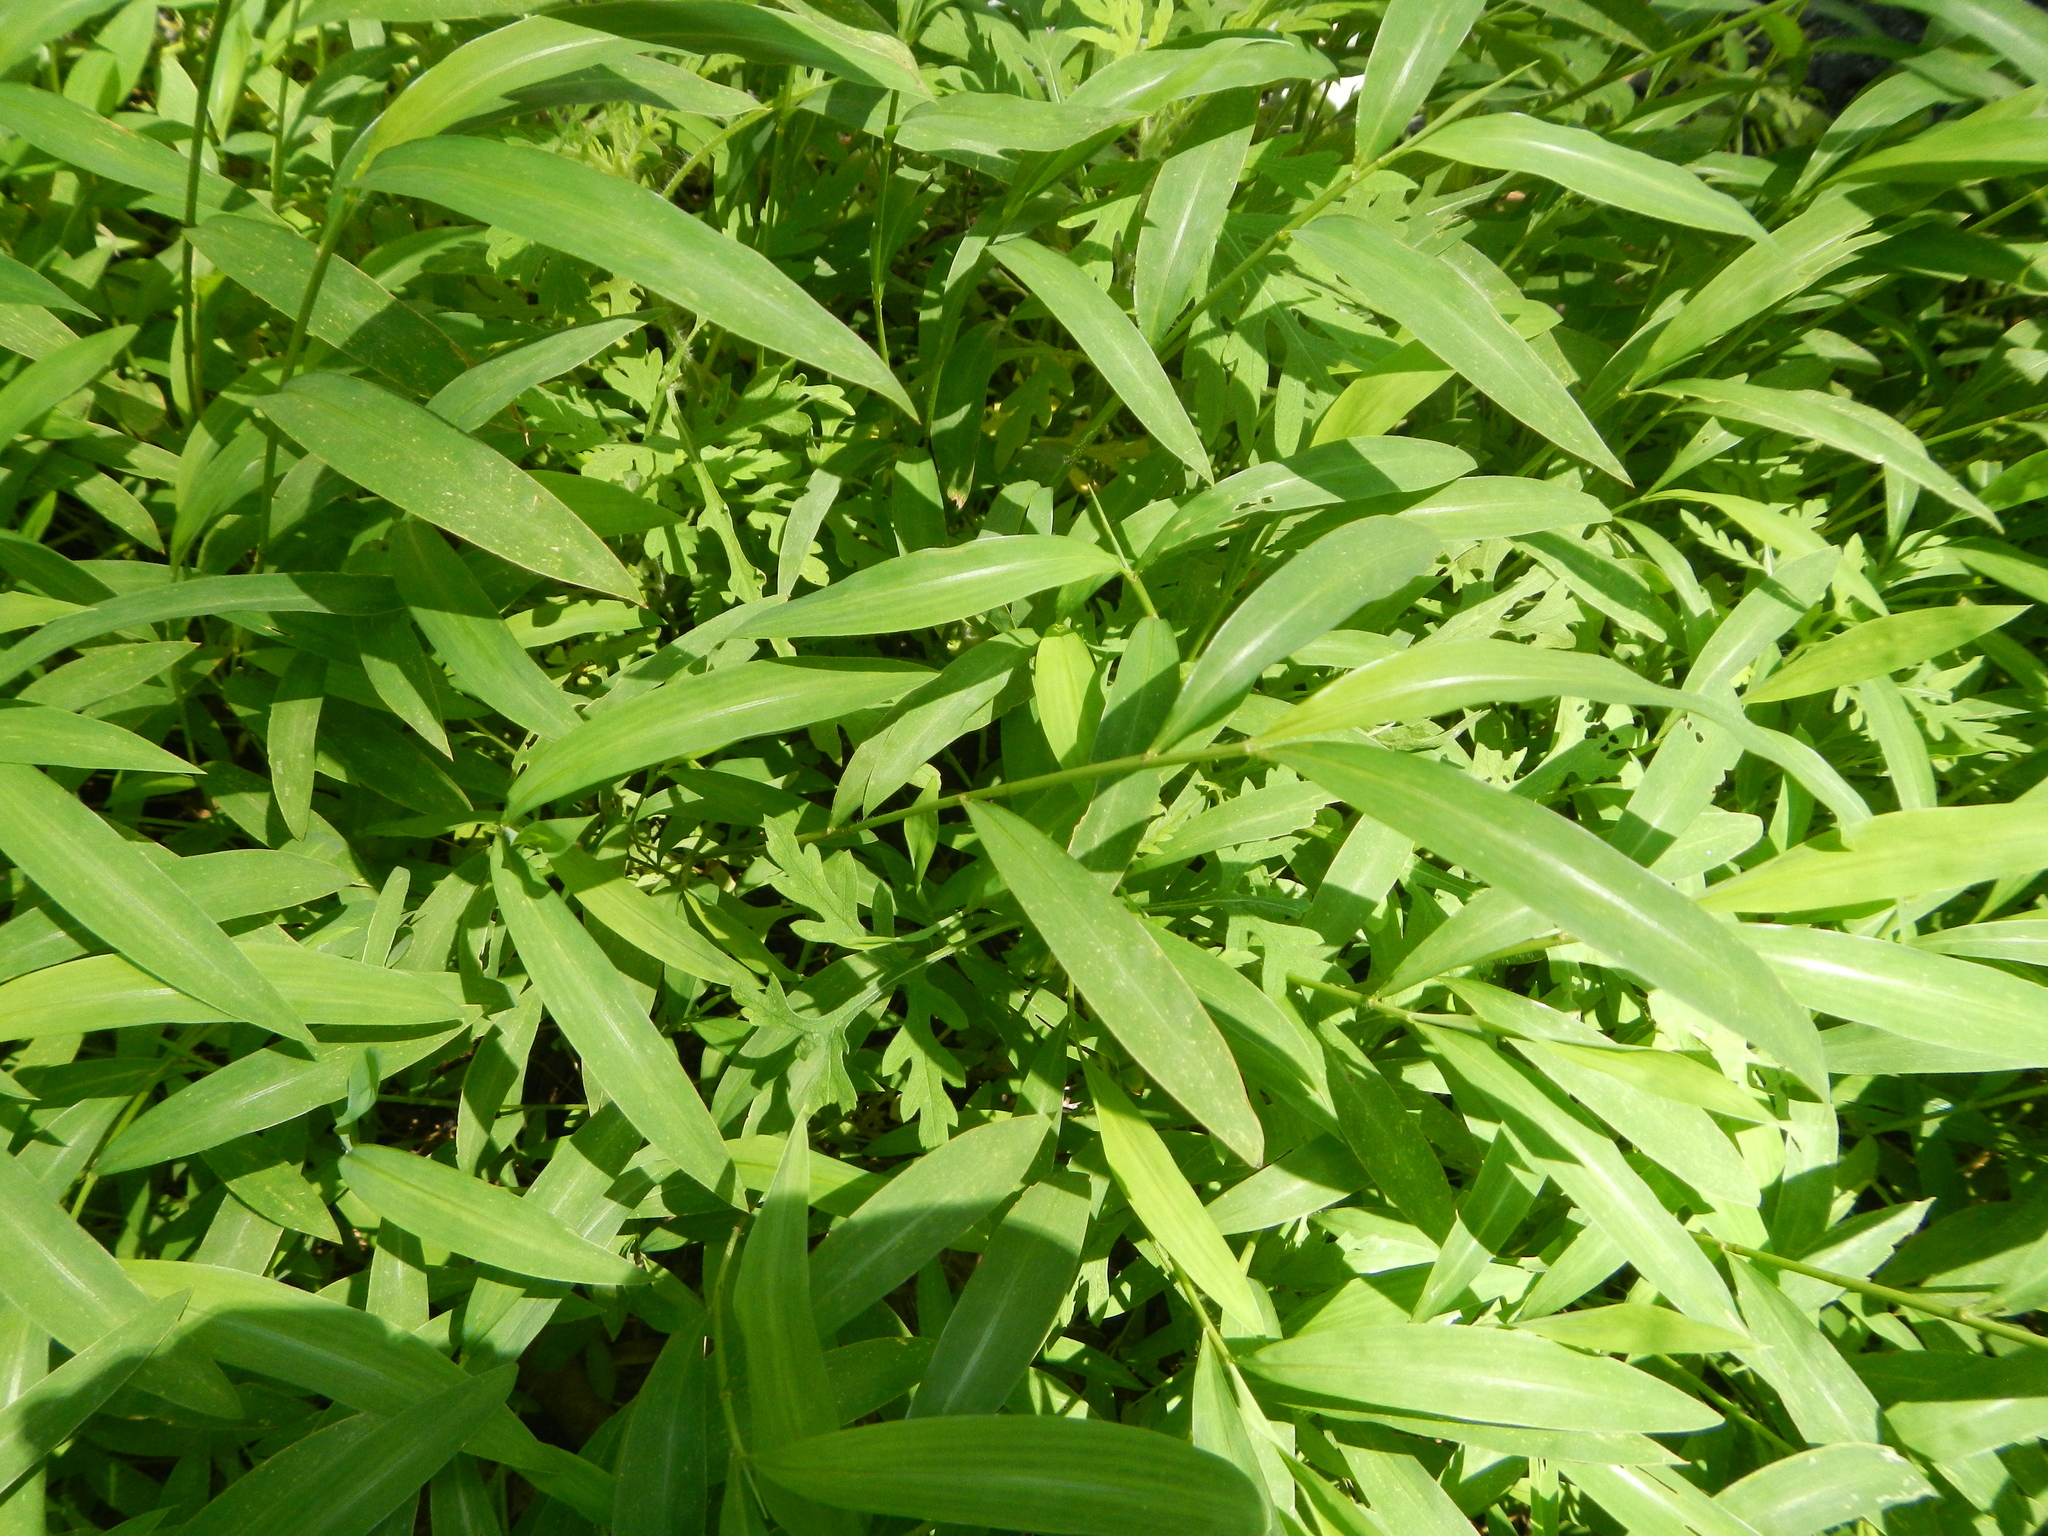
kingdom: Plantae
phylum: Tracheophyta
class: Liliopsida
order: Poales
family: Poaceae
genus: Microstegium
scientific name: Microstegium vimineum
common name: Japanese stiltgrass
